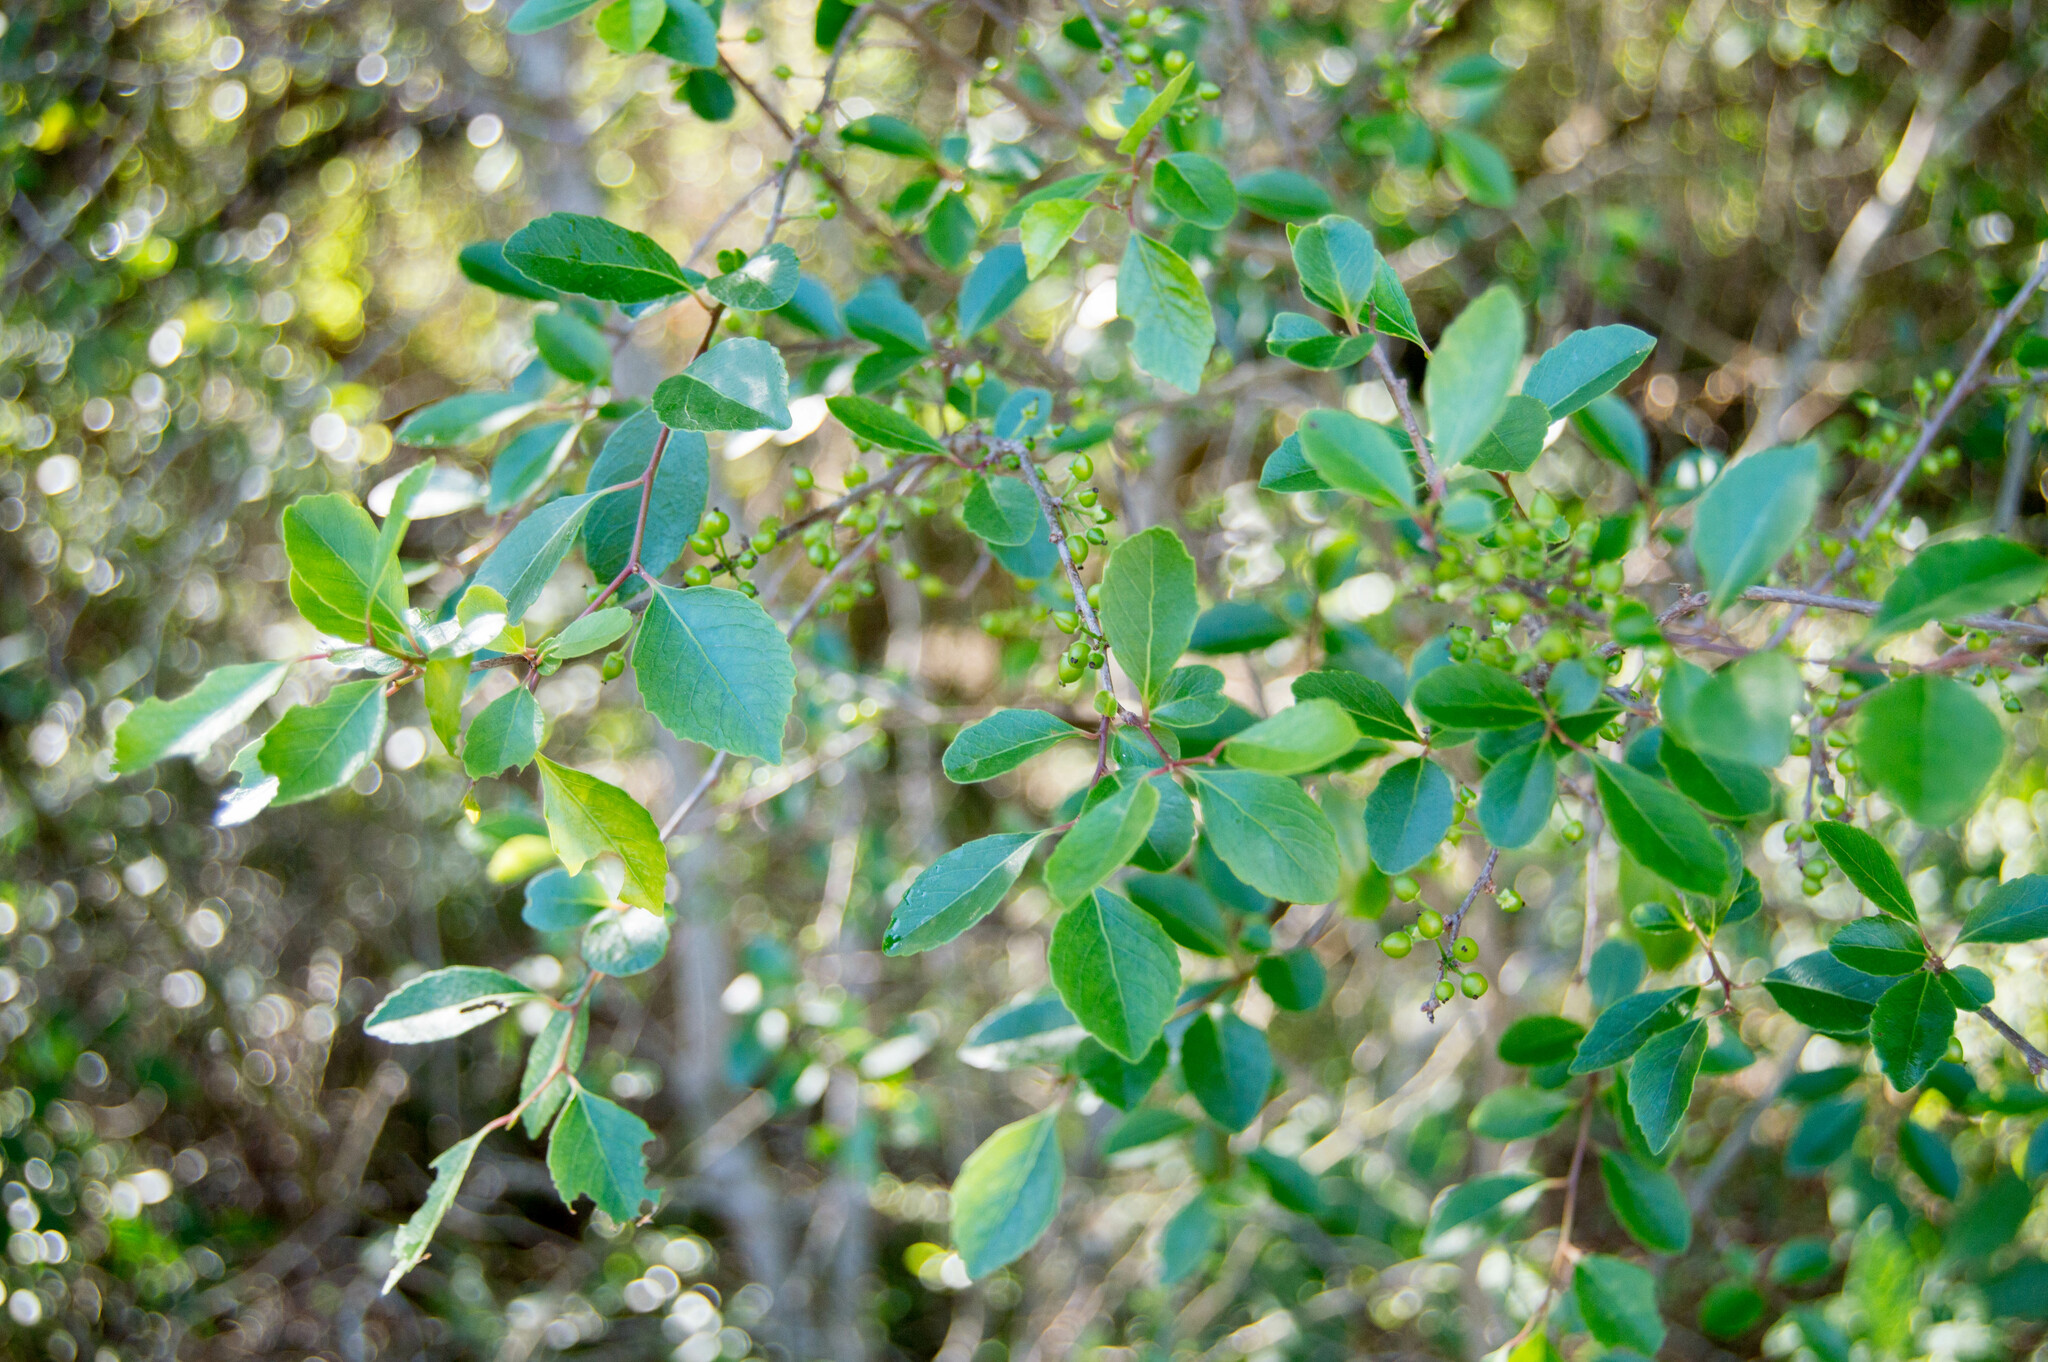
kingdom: Plantae
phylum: Tracheophyta
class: Magnoliopsida
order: Malpighiales
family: Salicaceae
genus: Xylosma
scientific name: Xylosma tweediana
